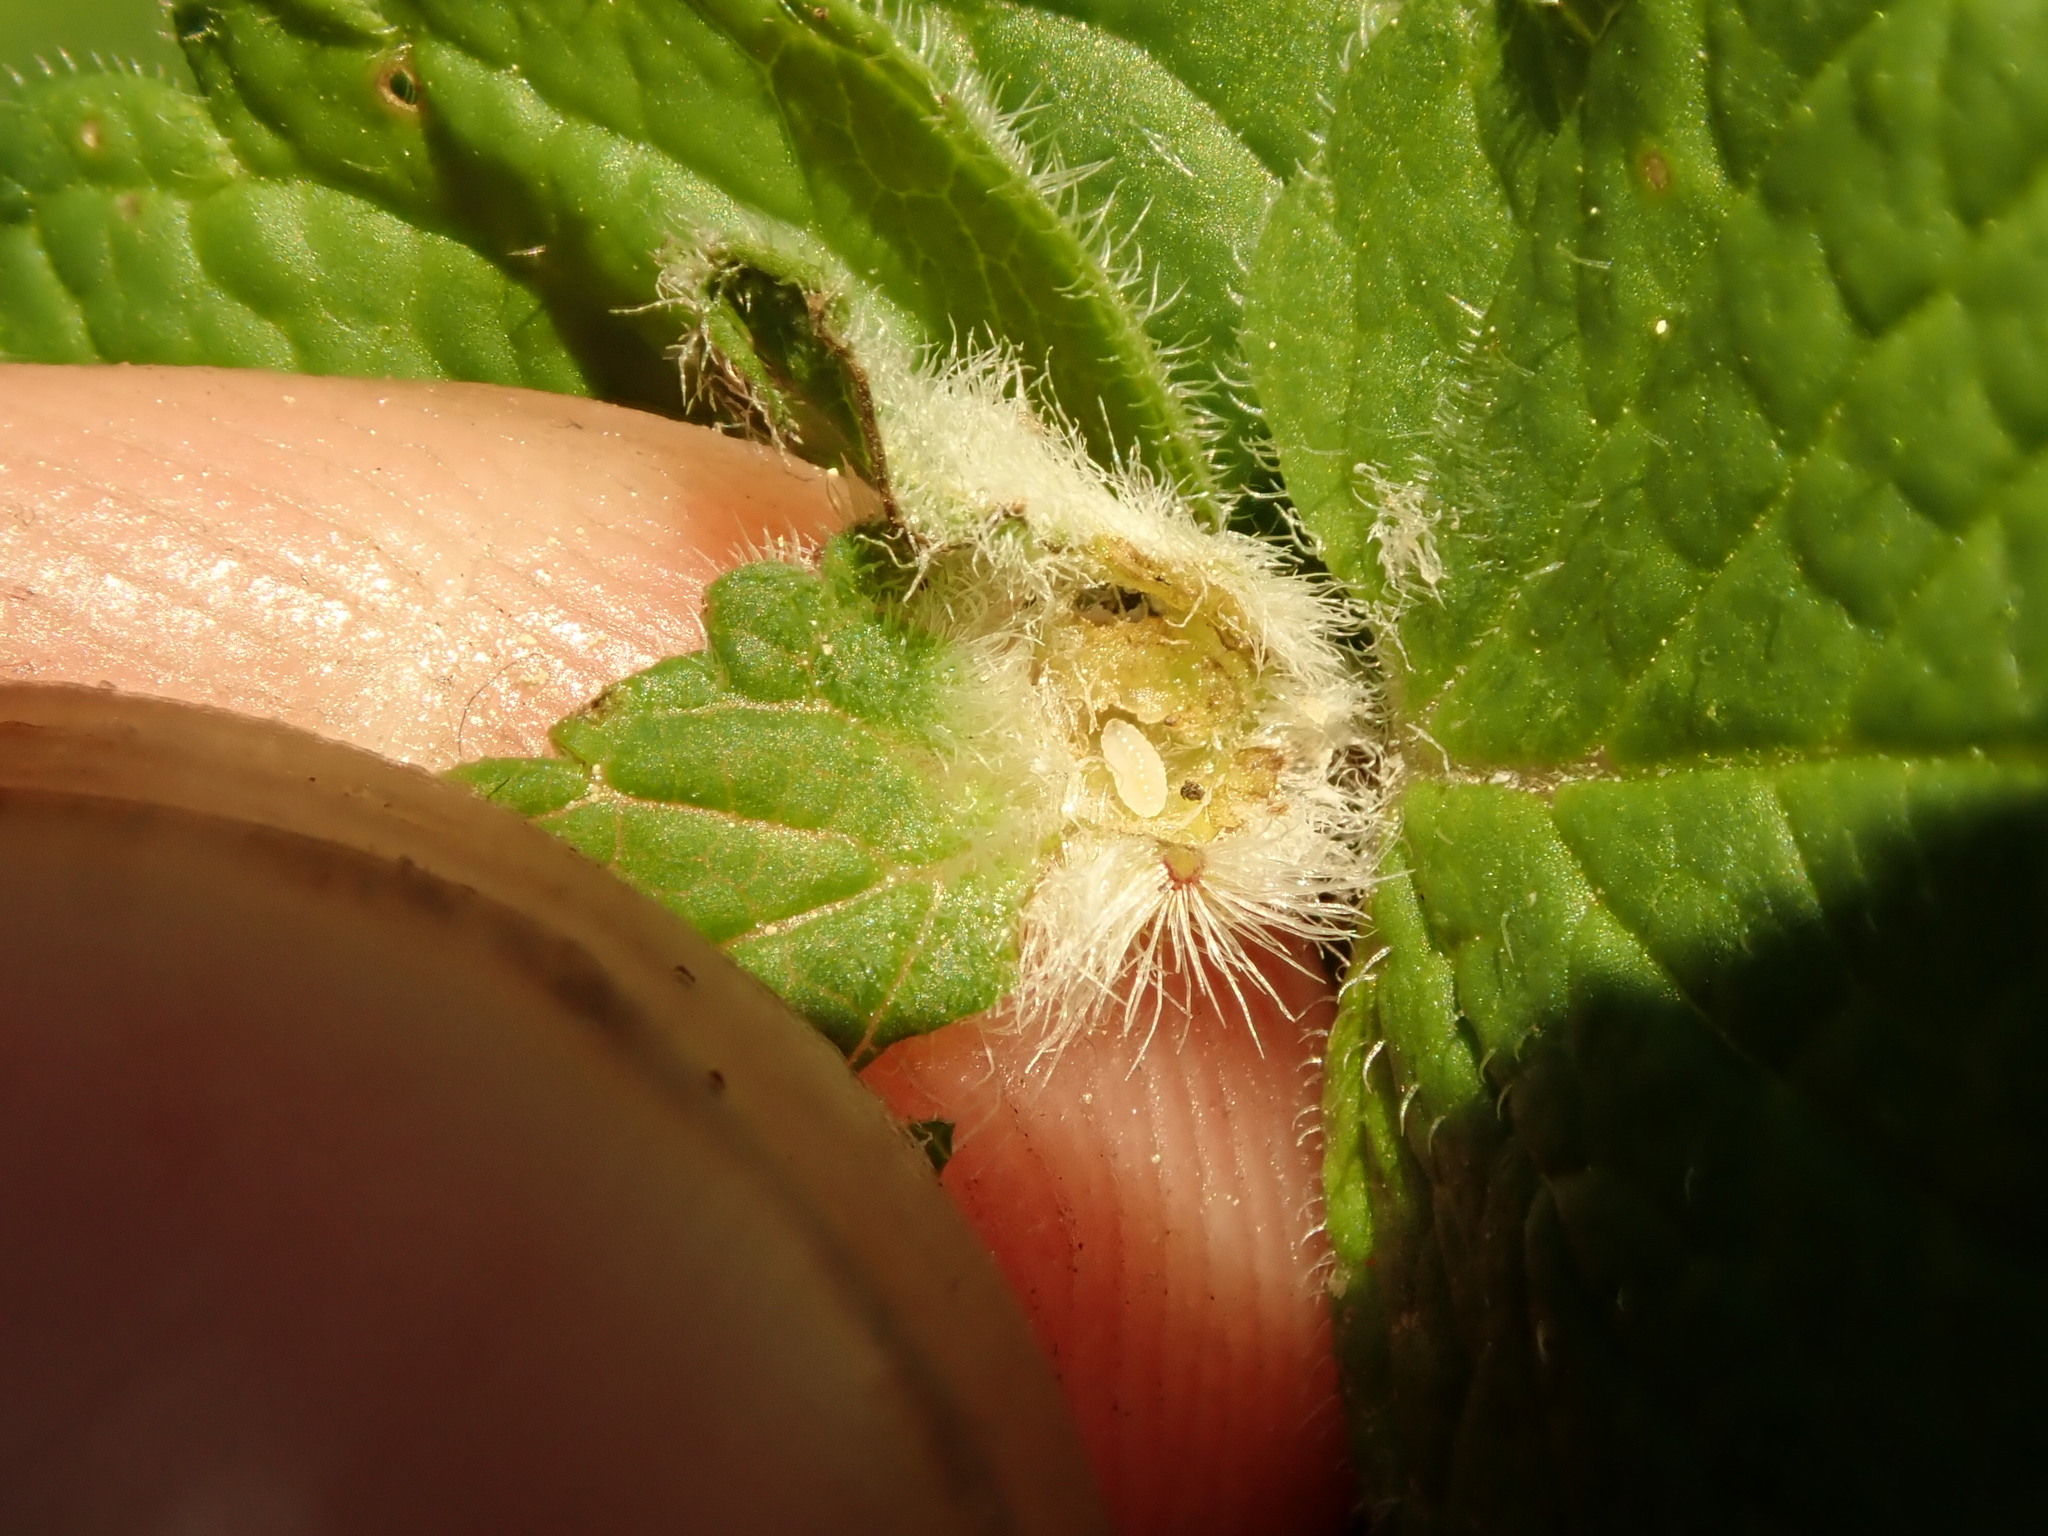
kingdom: Animalia
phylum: Arthropoda
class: Insecta
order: Diptera
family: Cecidomyiidae
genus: Jaapiella
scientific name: Jaapiella veronicae
